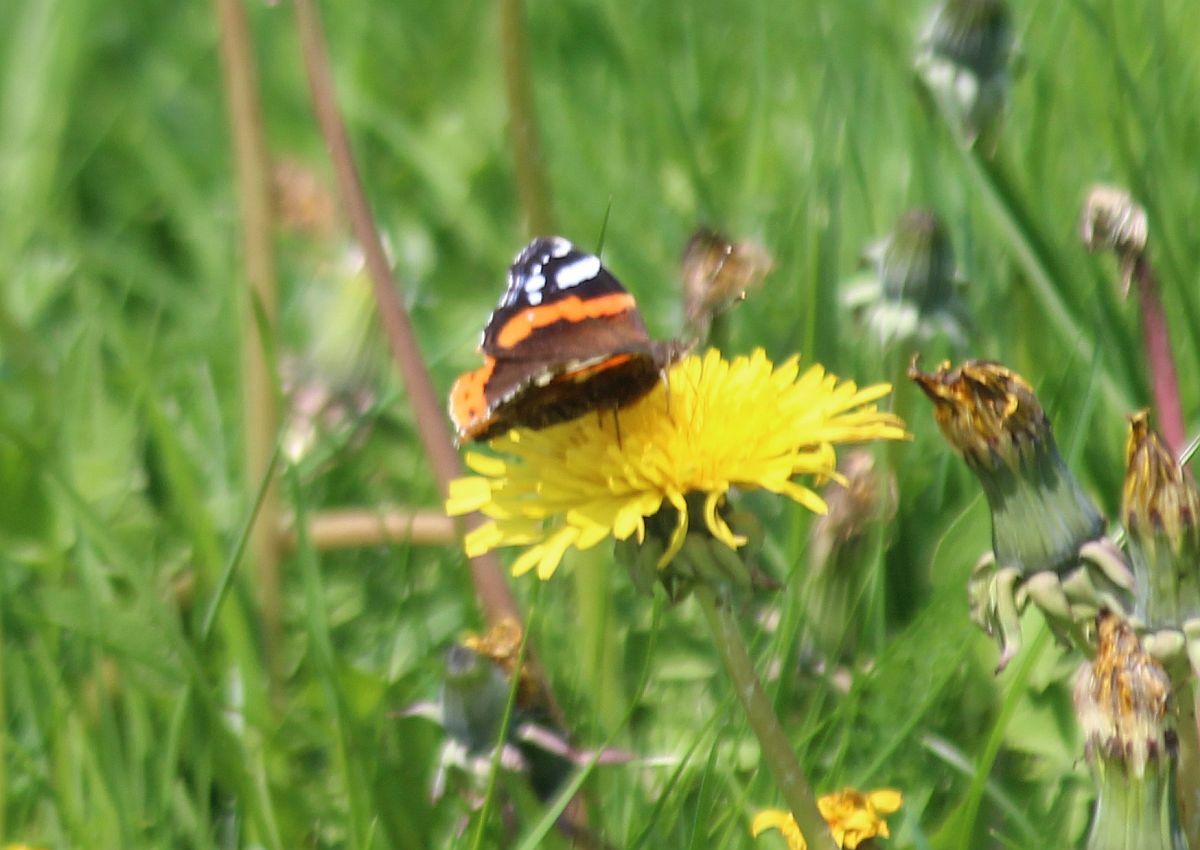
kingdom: Animalia
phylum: Arthropoda
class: Insecta
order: Lepidoptera
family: Nymphalidae
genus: Vanessa
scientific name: Vanessa atalanta
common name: Red admiral
